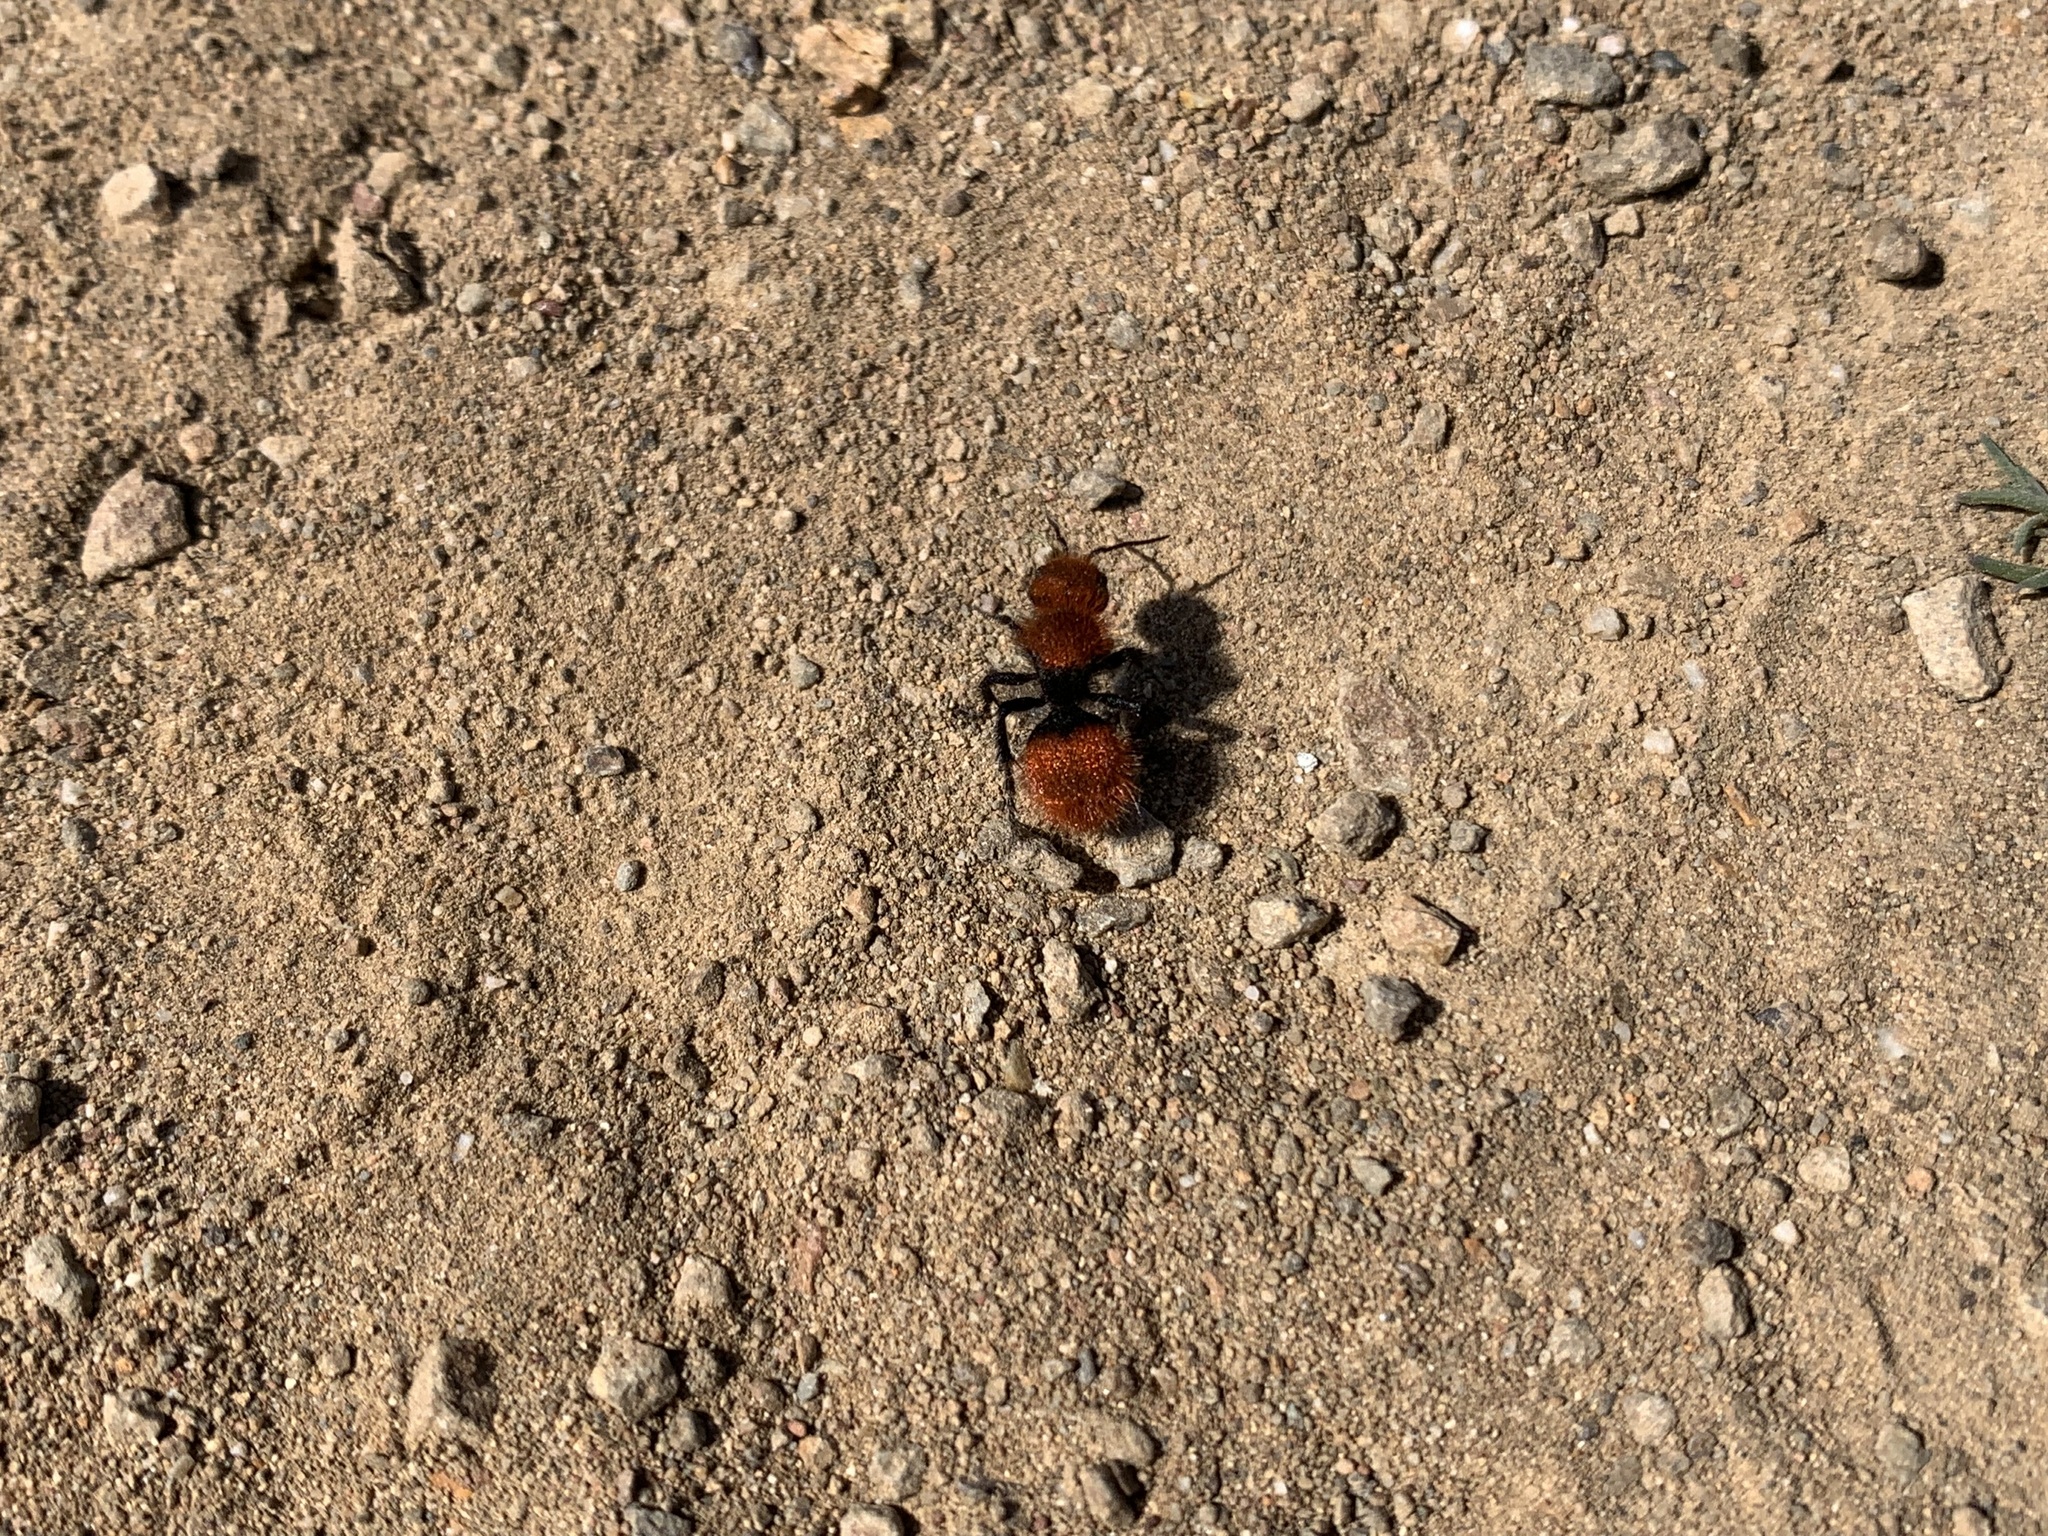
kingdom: Animalia
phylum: Arthropoda
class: Insecta
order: Hymenoptera
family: Mutillidae
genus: Dasymutilla
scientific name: Dasymutilla
